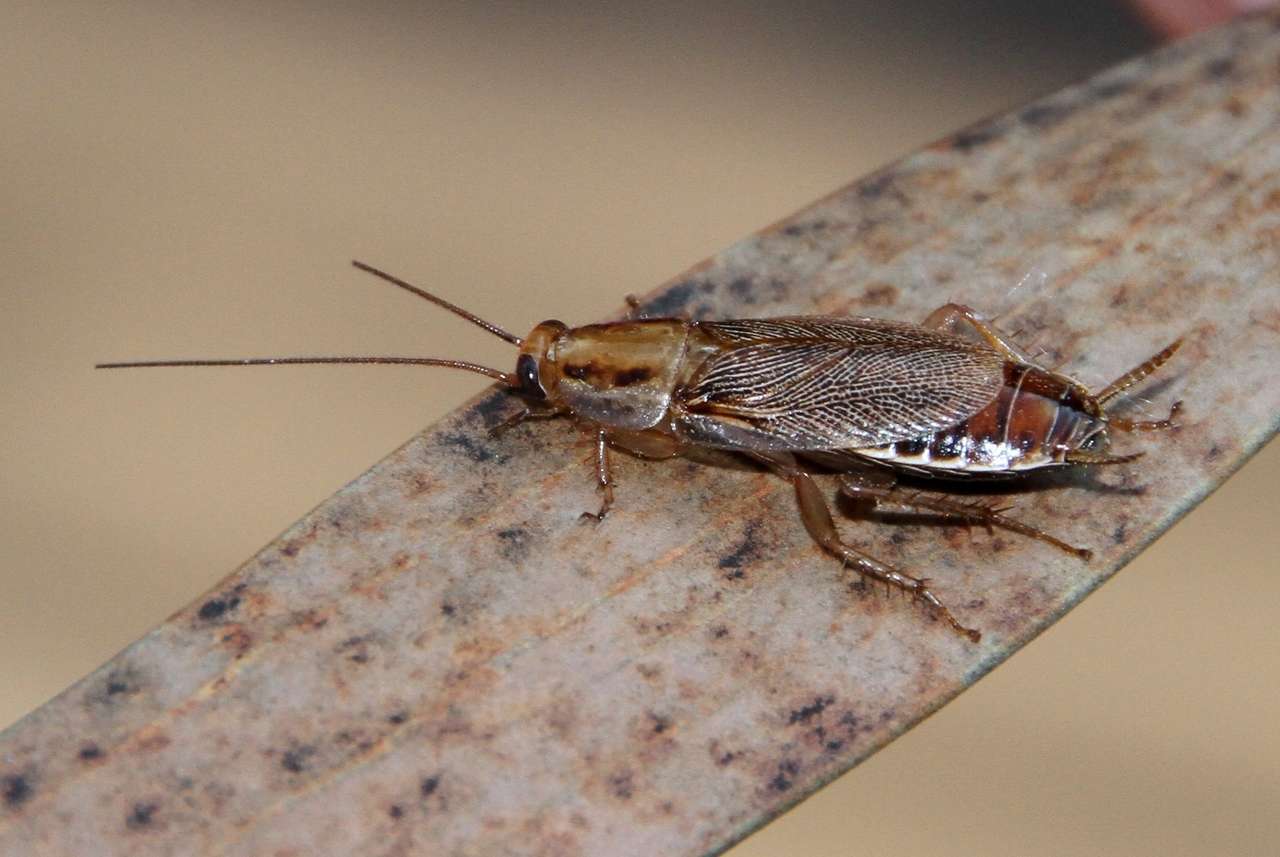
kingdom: Animalia
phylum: Arthropoda
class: Insecta
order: Blattodea
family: Ectobiidae
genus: Blattella
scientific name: Blattella germanica
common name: German cockroach
